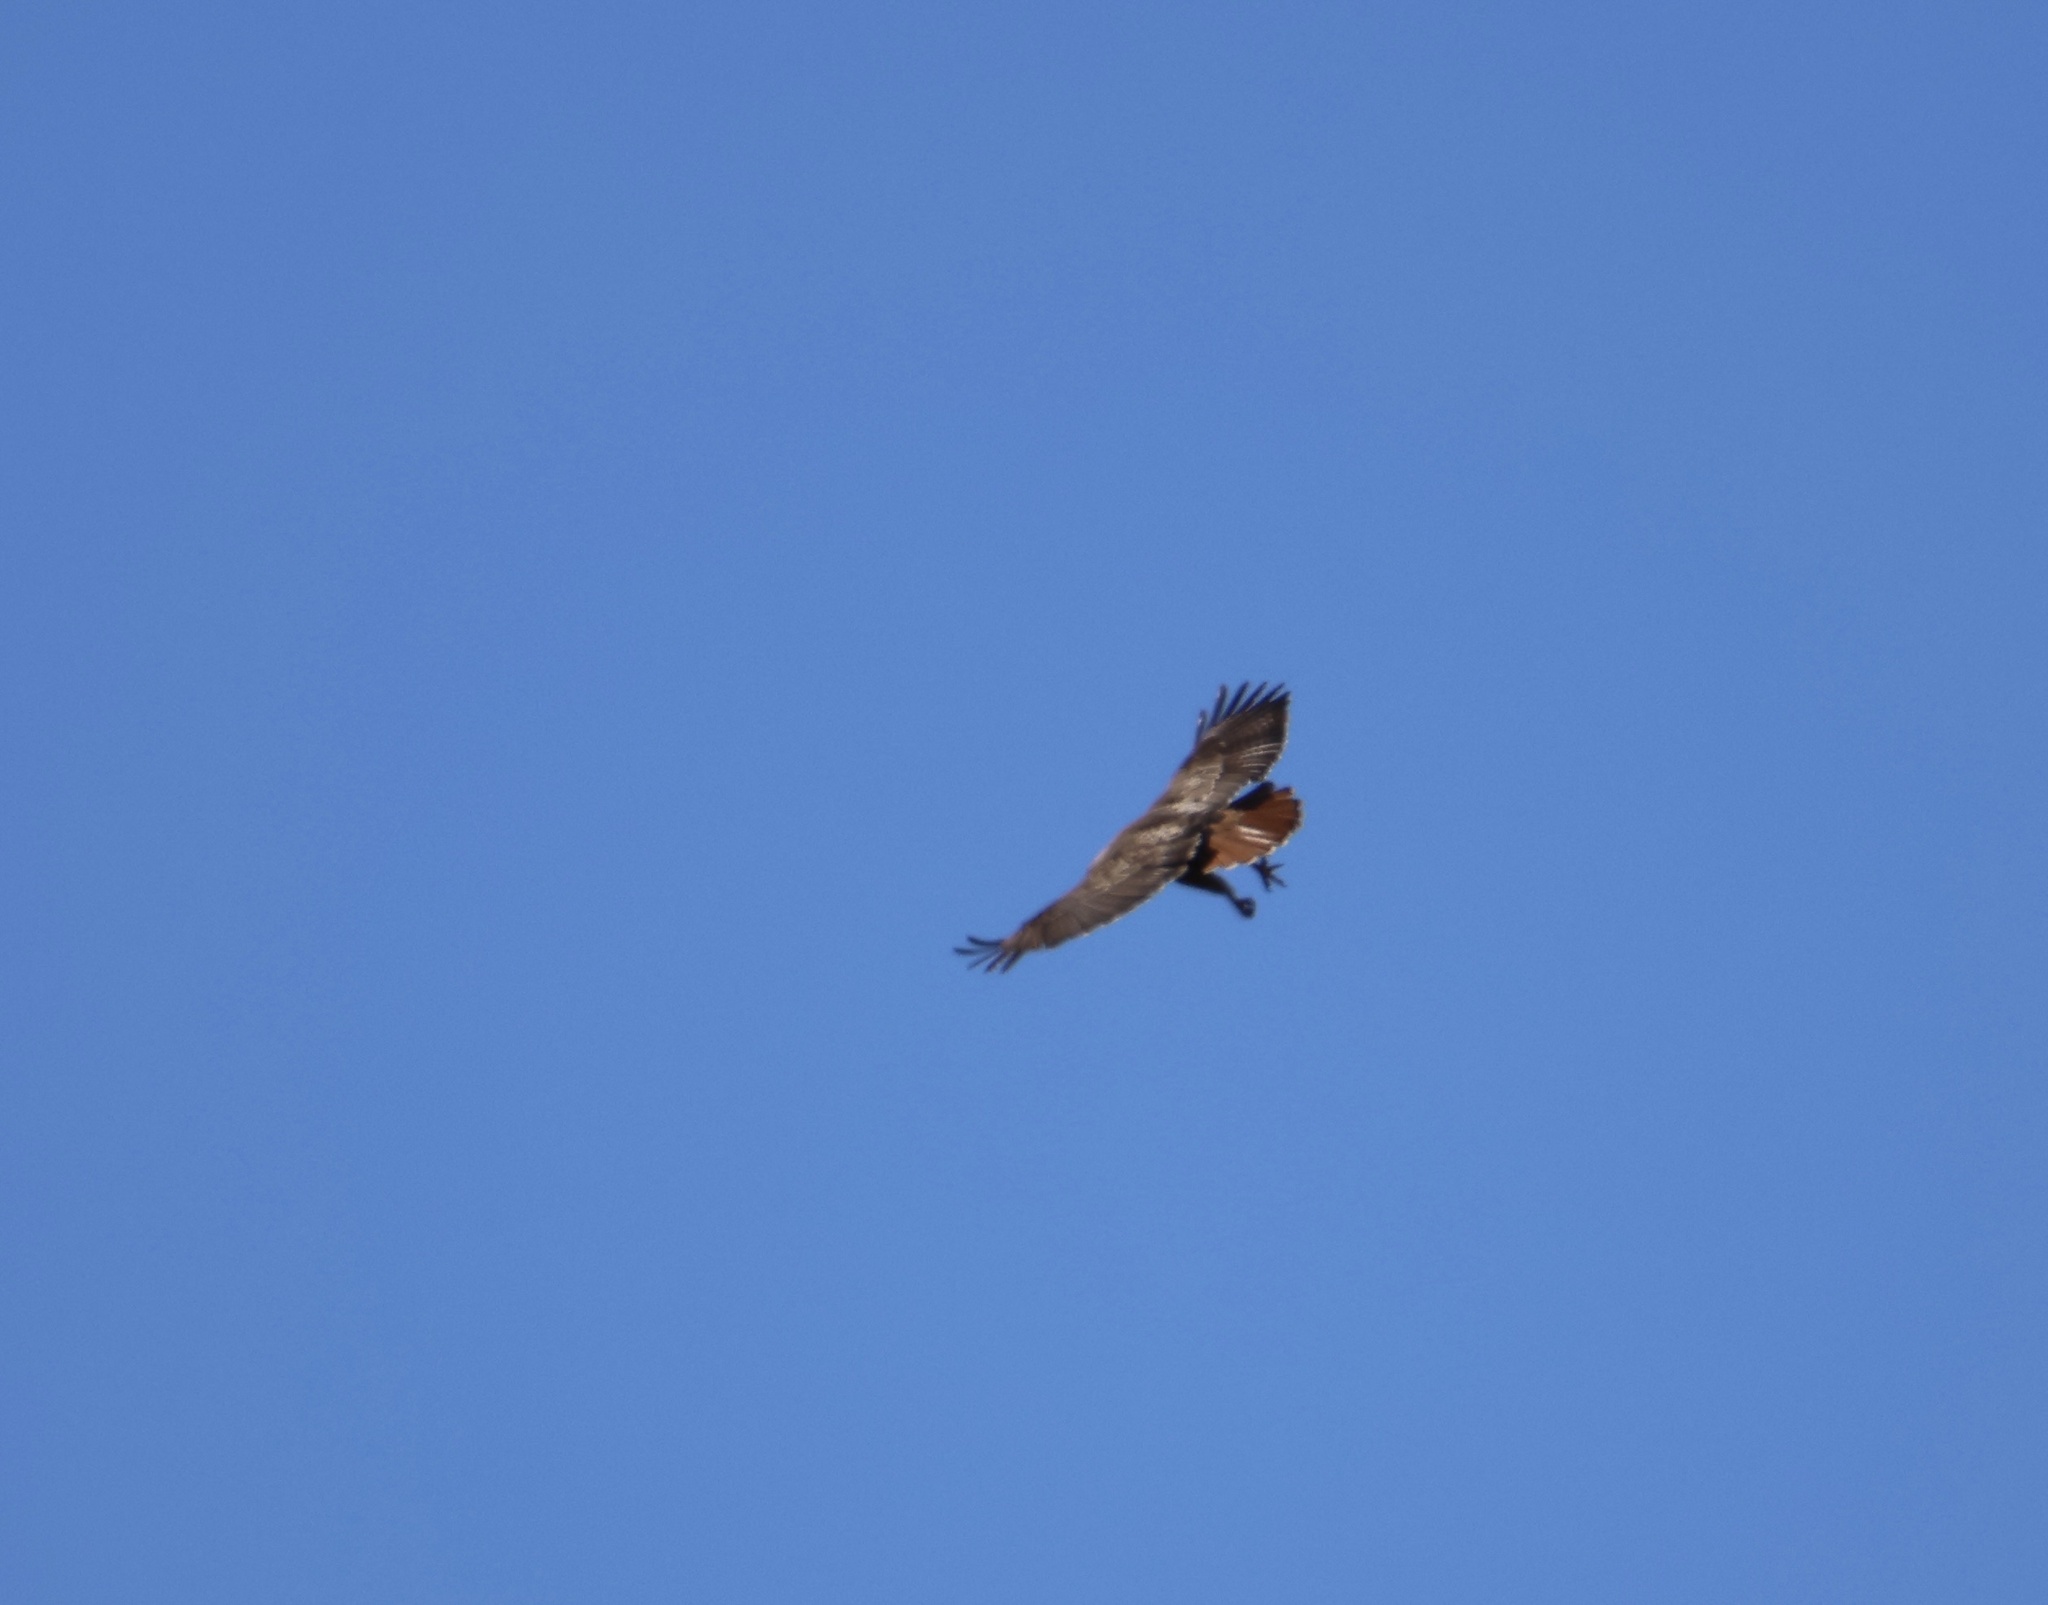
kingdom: Animalia
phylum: Chordata
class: Aves
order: Accipitriformes
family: Accipitridae
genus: Buteo
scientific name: Buteo jamaicensis
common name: Red-tailed hawk
